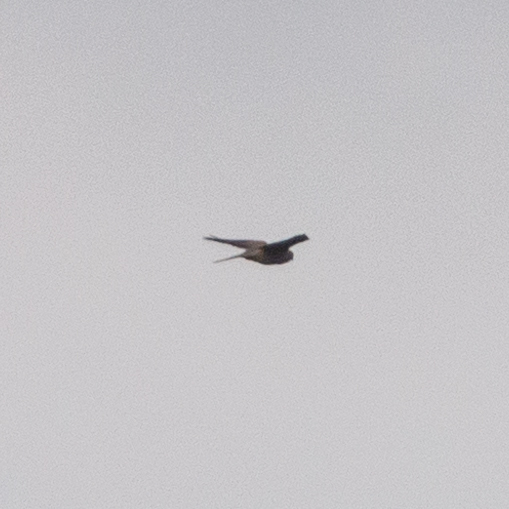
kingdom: Animalia
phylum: Chordata
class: Aves
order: Falconiformes
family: Falconidae
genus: Falco
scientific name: Falco tinnunculus
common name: Common kestrel
